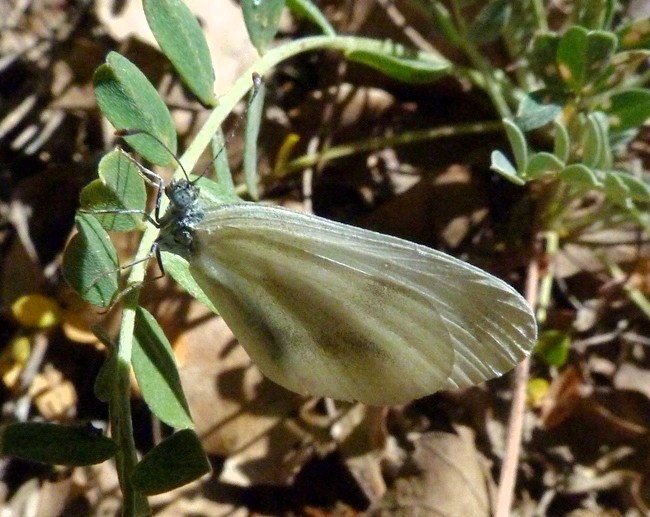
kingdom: Animalia
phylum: Arthropoda
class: Insecta
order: Lepidoptera
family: Pieridae
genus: Leptidea
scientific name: Leptidea sinapis
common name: Wood white
